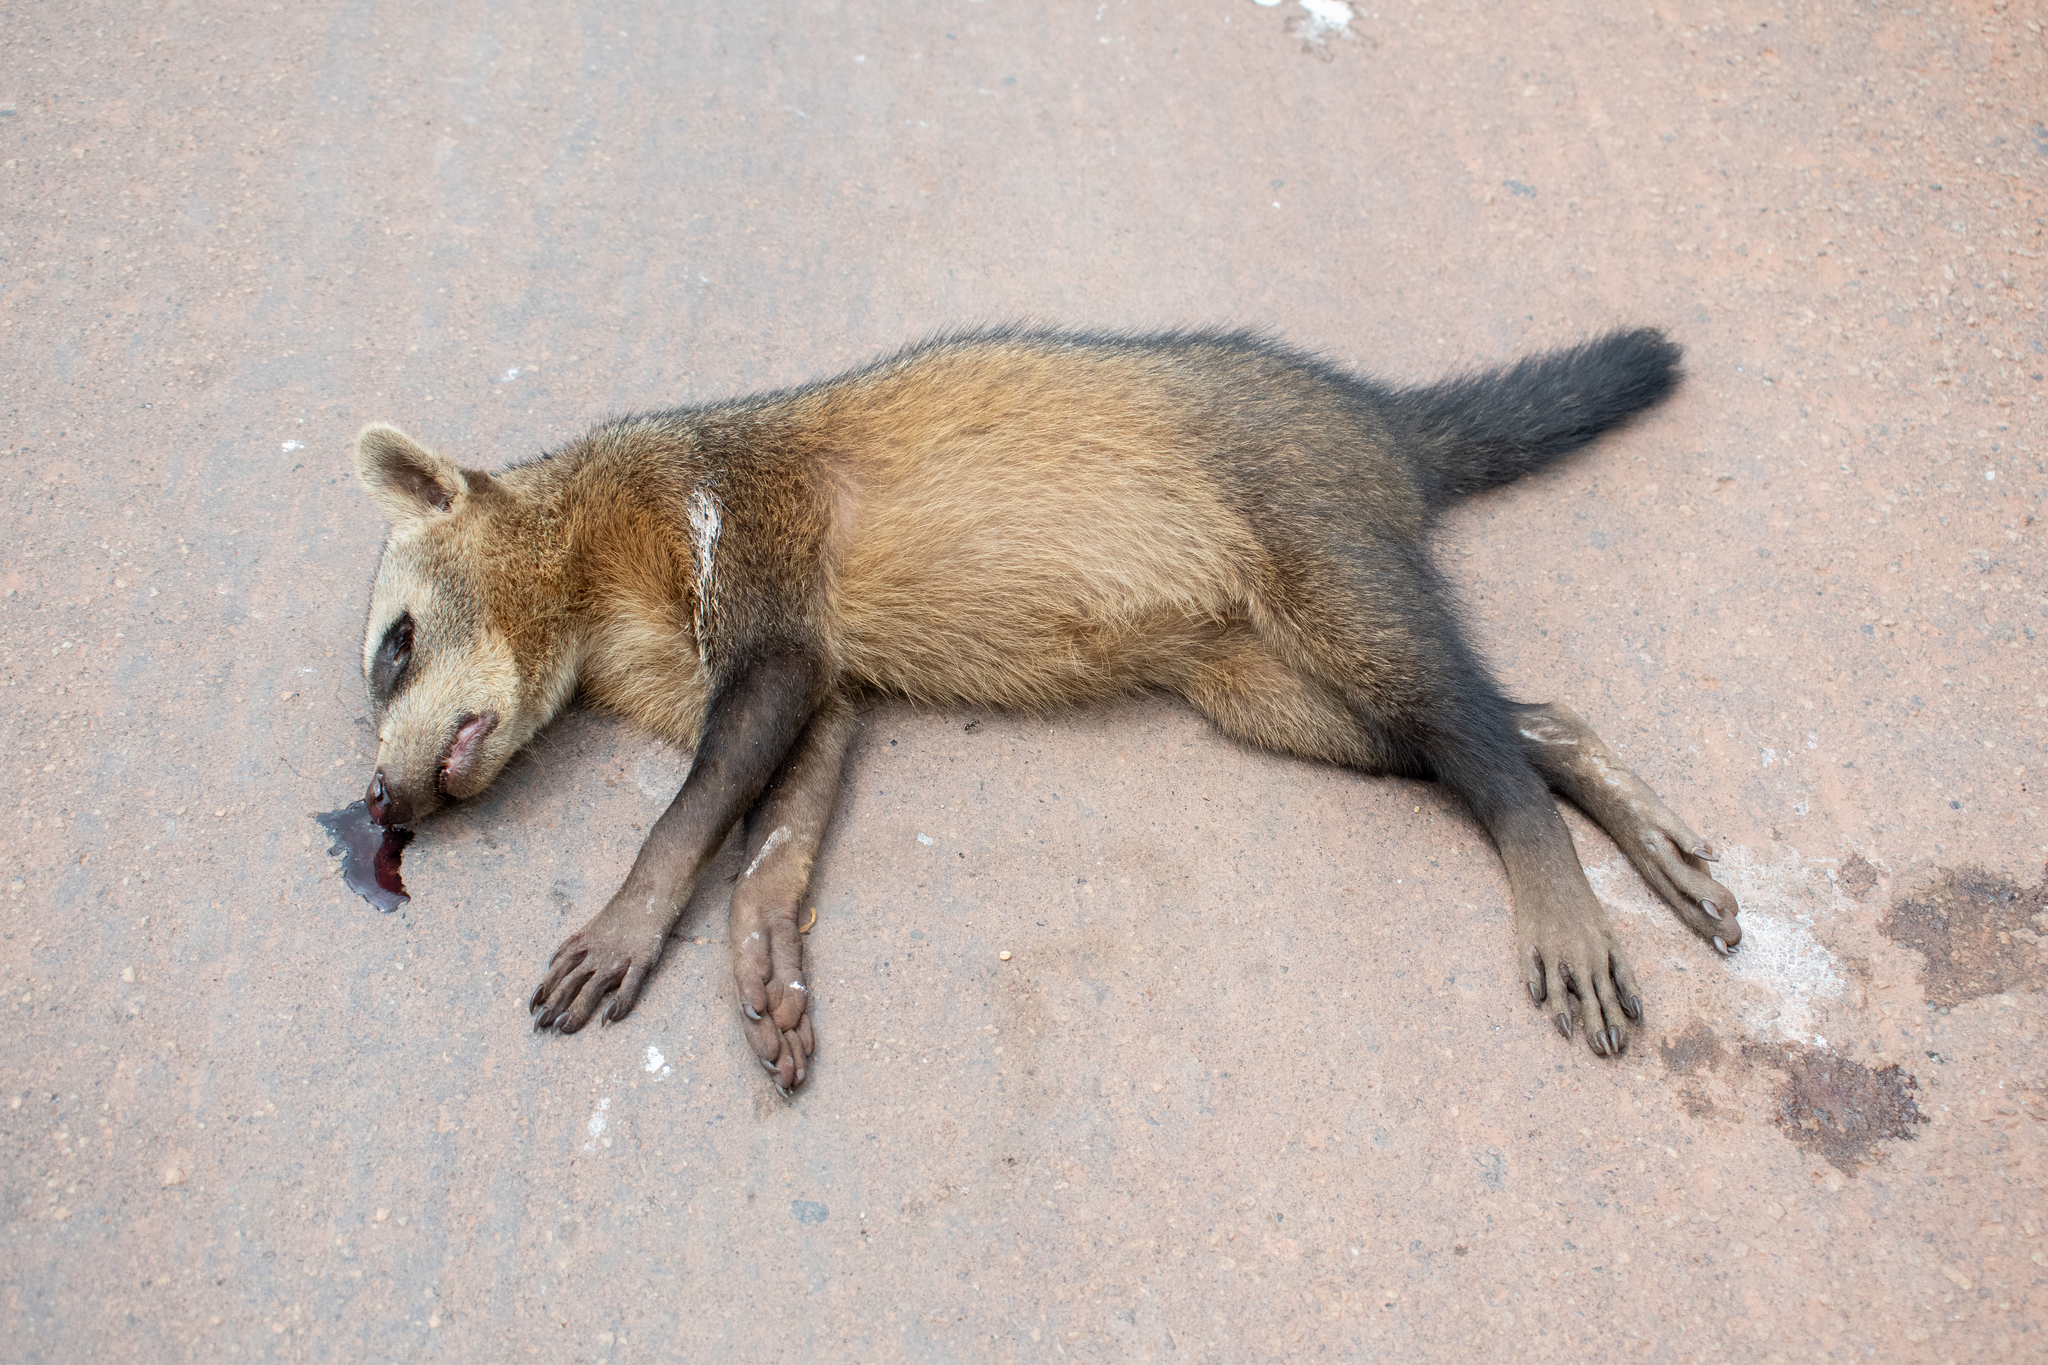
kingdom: Animalia
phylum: Chordata
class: Mammalia
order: Carnivora
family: Procyonidae
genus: Procyon
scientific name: Procyon cancrivorus
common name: Crab-eating raccoon
